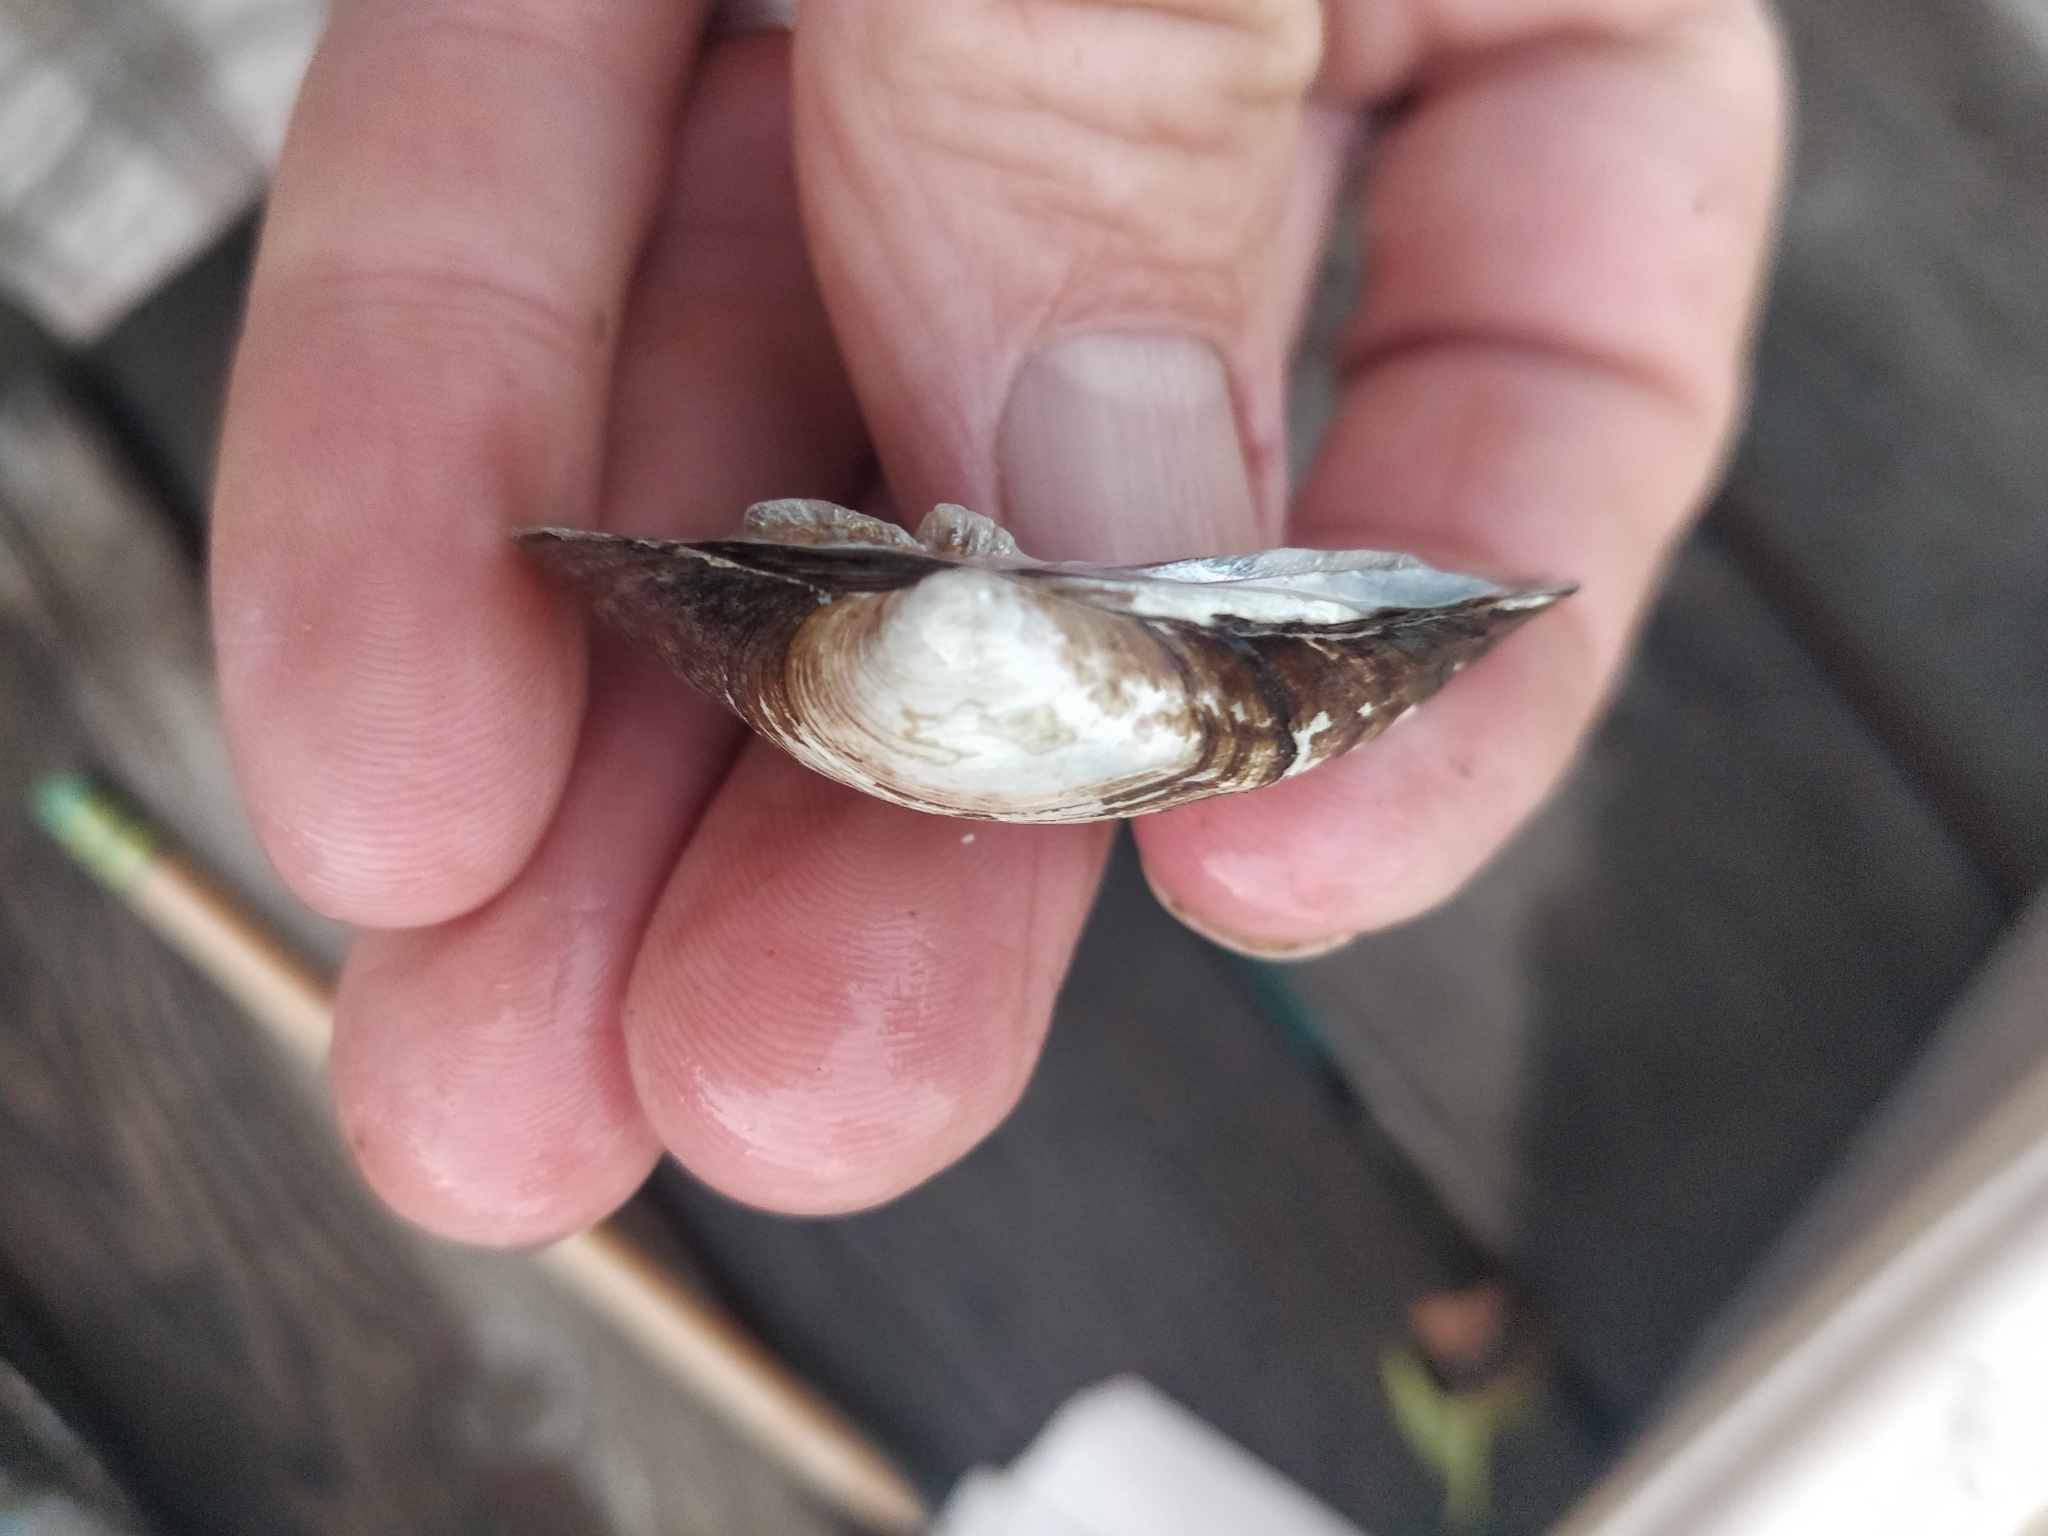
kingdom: Animalia
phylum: Mollusca
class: Bivalvia
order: Unionida
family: Unionidae
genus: Fusconaia
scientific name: Fusconaia flava
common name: Wabash pigtoe
